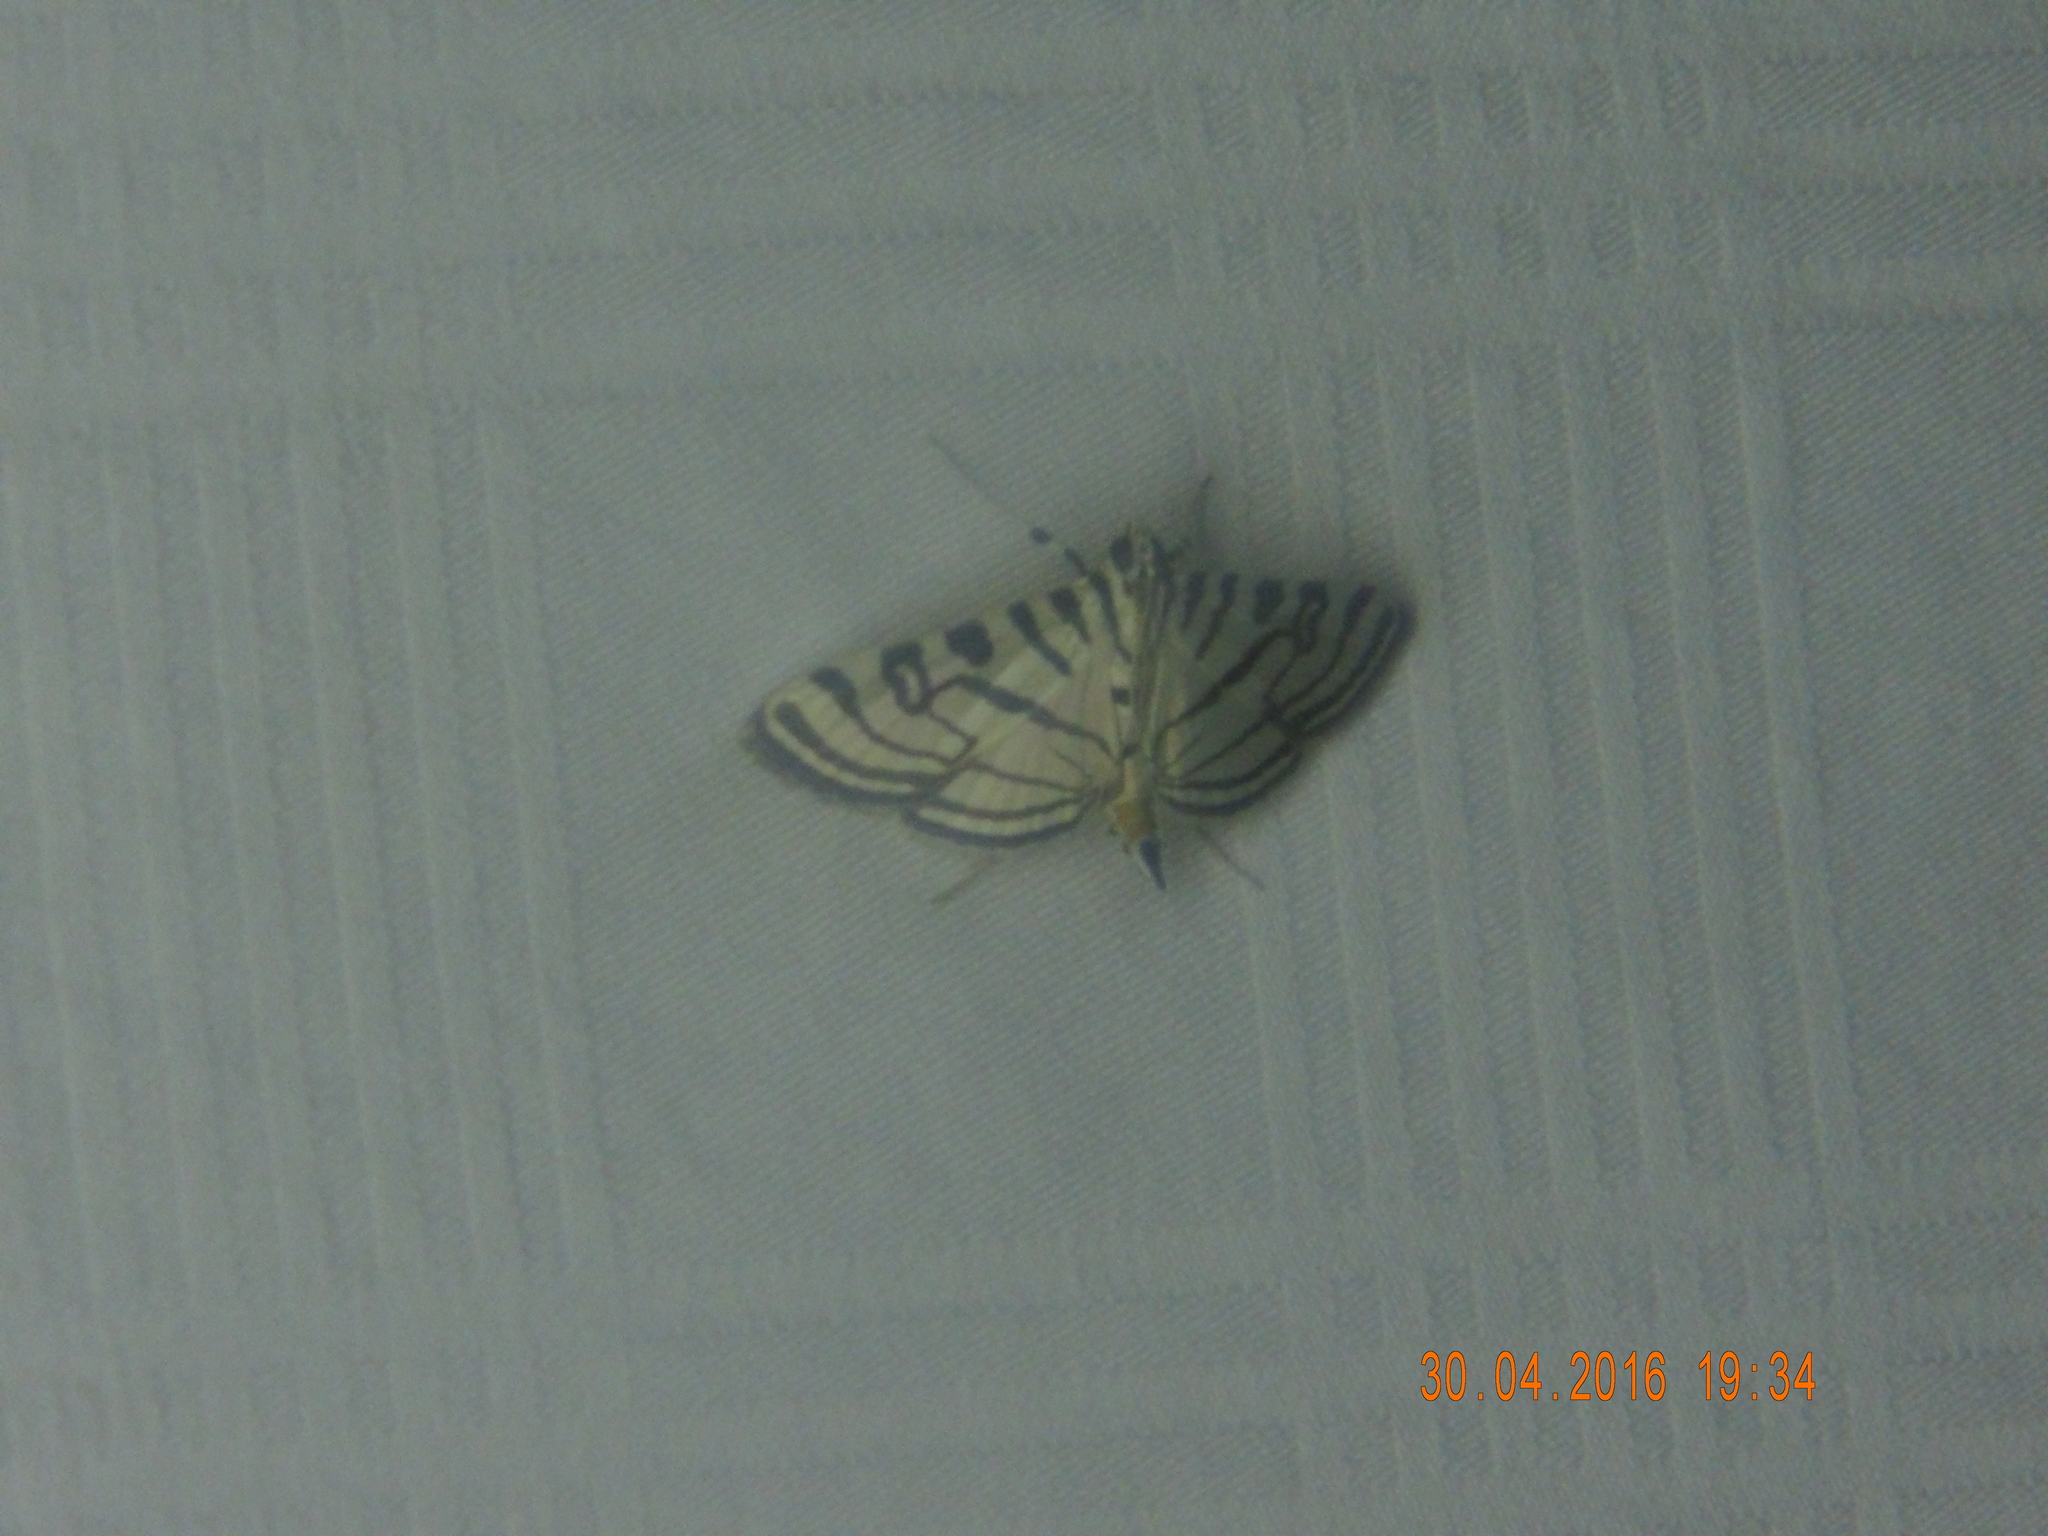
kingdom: Animalia
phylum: Arthropoda
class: Insecta
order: Lepidoptera
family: Crambidae
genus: Conchylodes
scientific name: Conchylodes ovulalis
